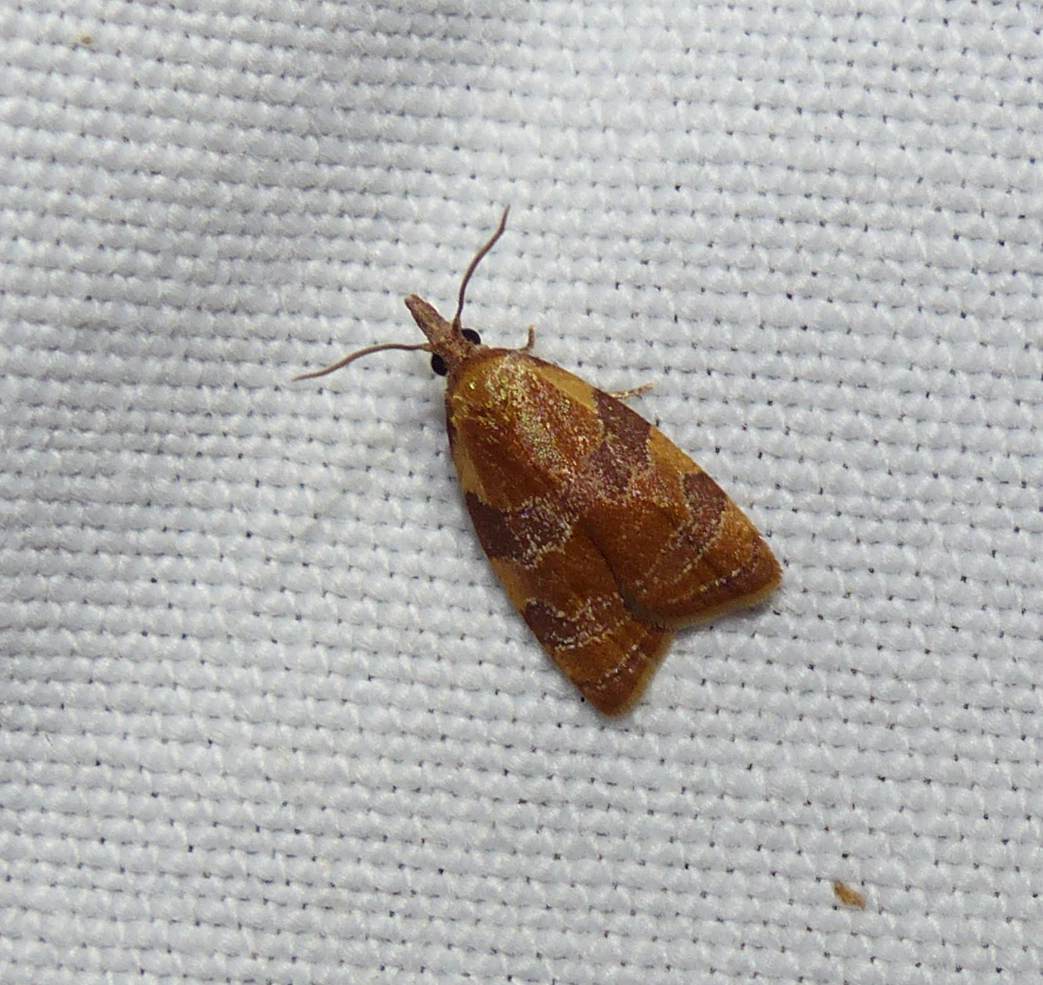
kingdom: Animalia
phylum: Arthropoda
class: Insecta
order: Lepidoptera
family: Tortricidae
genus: Cenopis
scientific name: Cenopis diluticostana
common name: Spring dead-leaf roller moth
